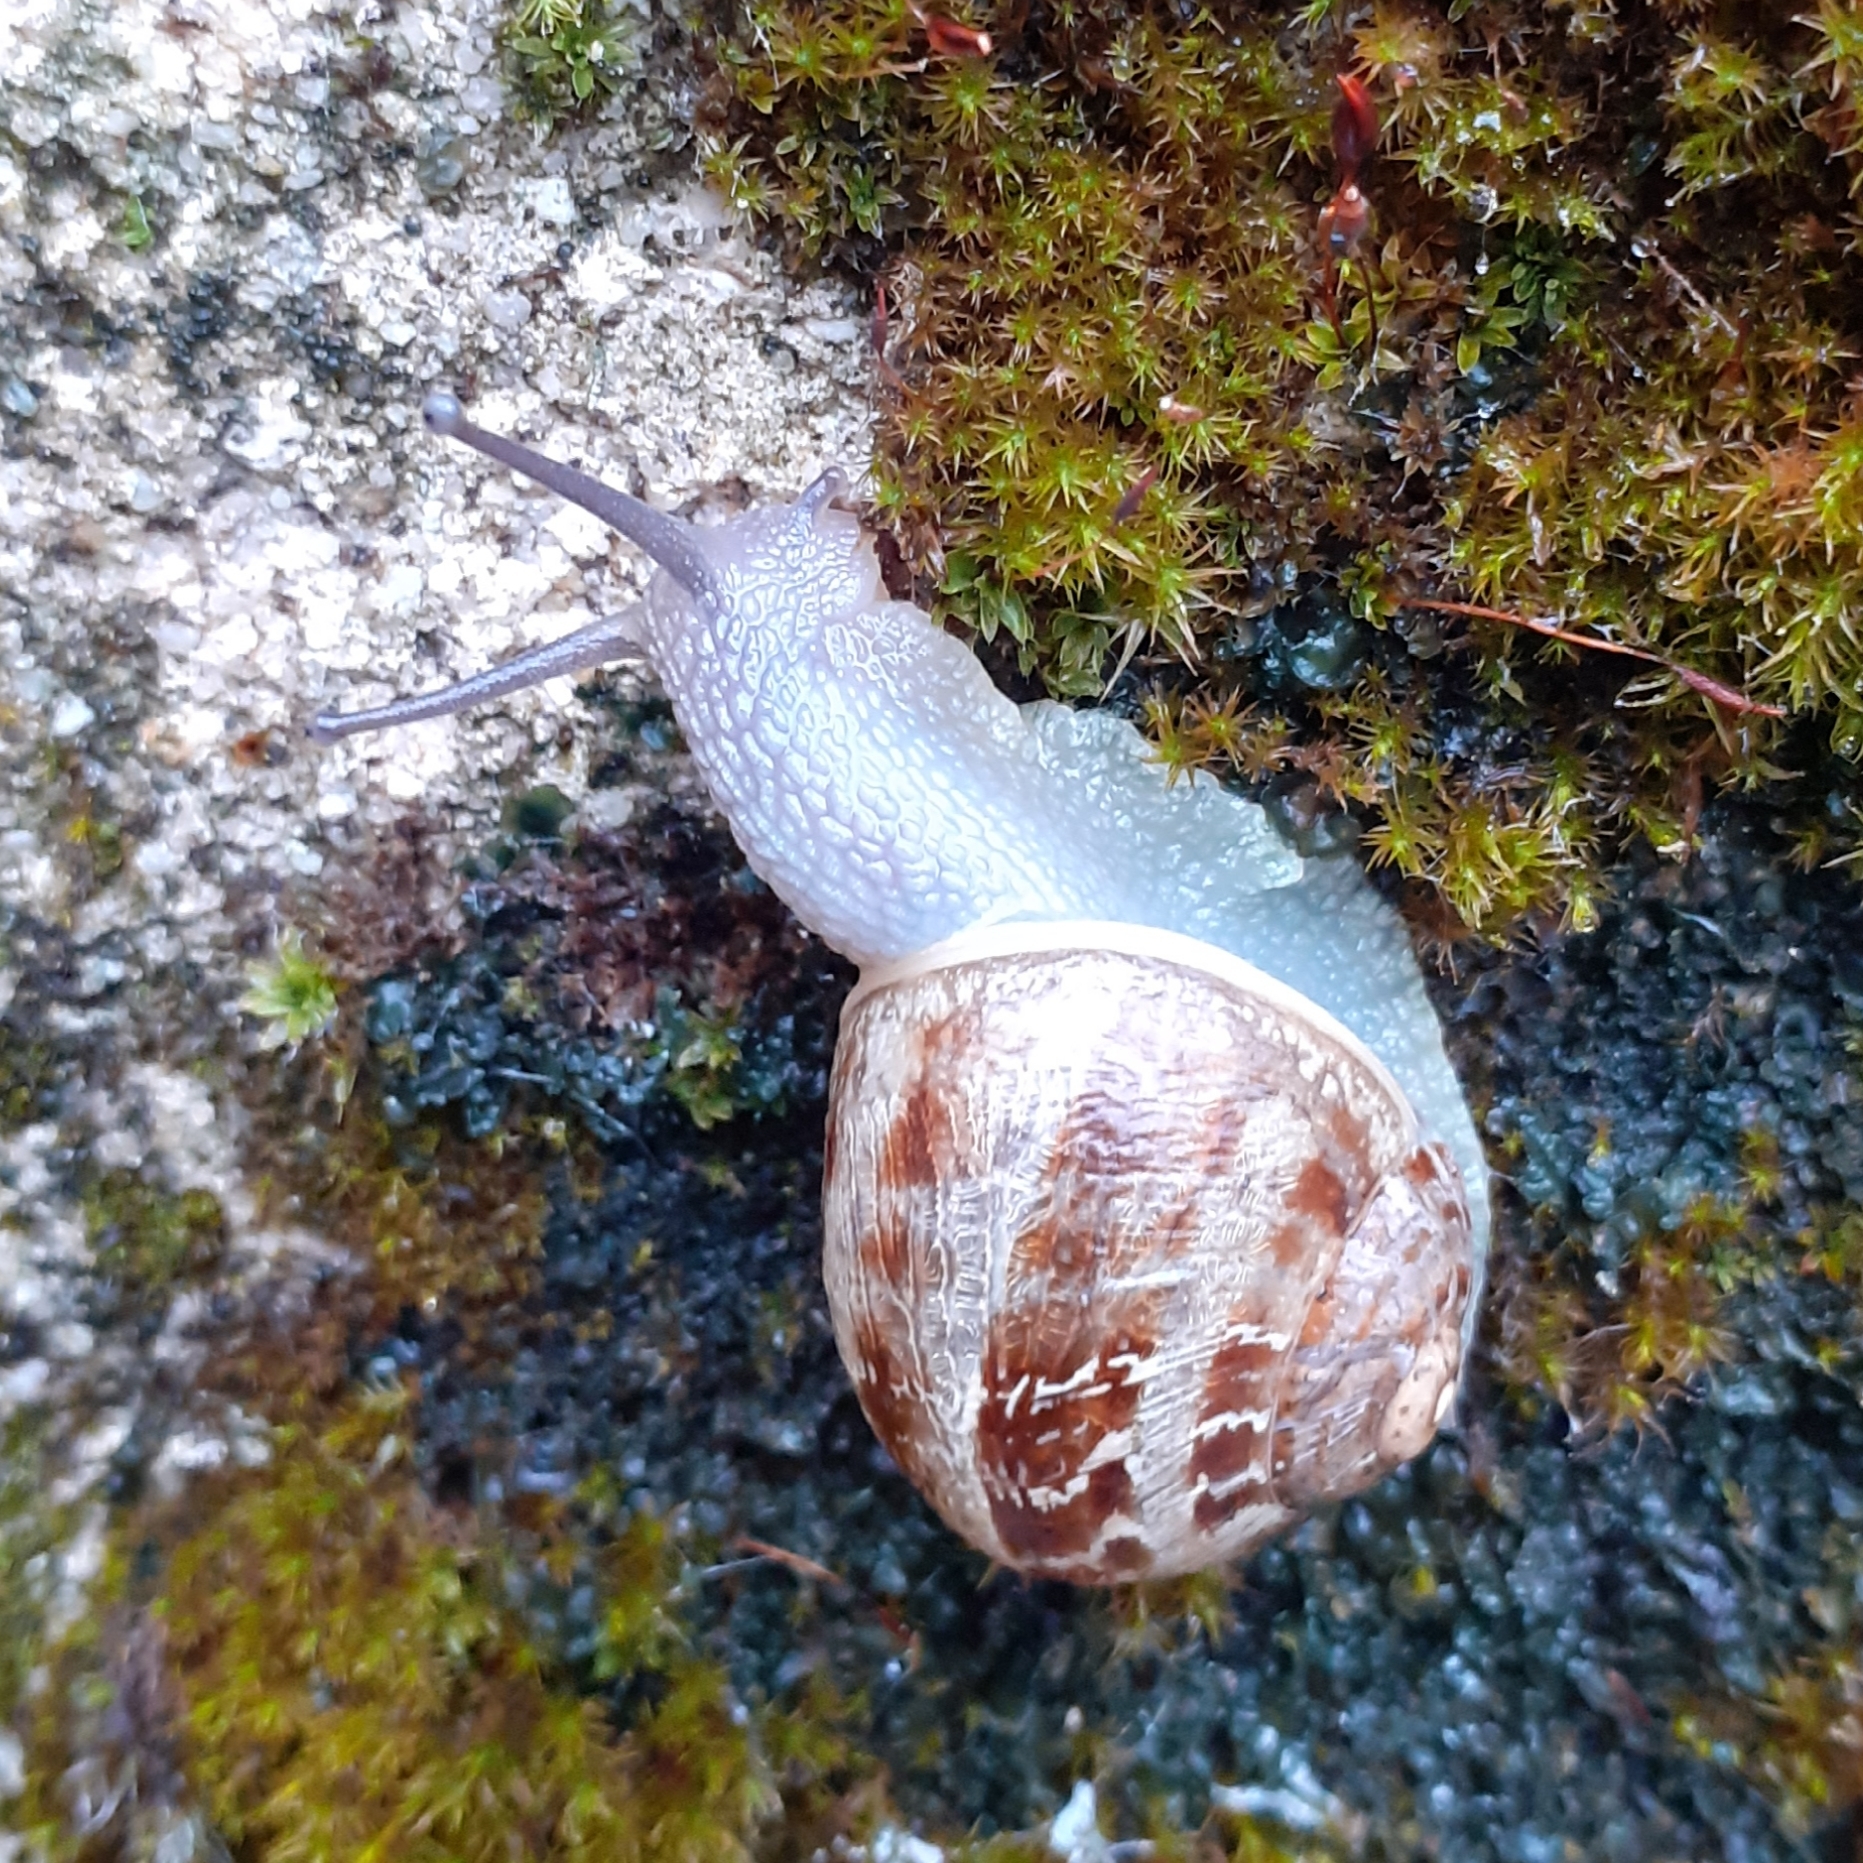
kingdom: Animalia
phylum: Mollusca
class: Gastropoda
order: Stylommatophora
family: Helicidae
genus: Cornu
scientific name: Cornu aspersum
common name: Brown garden snail
